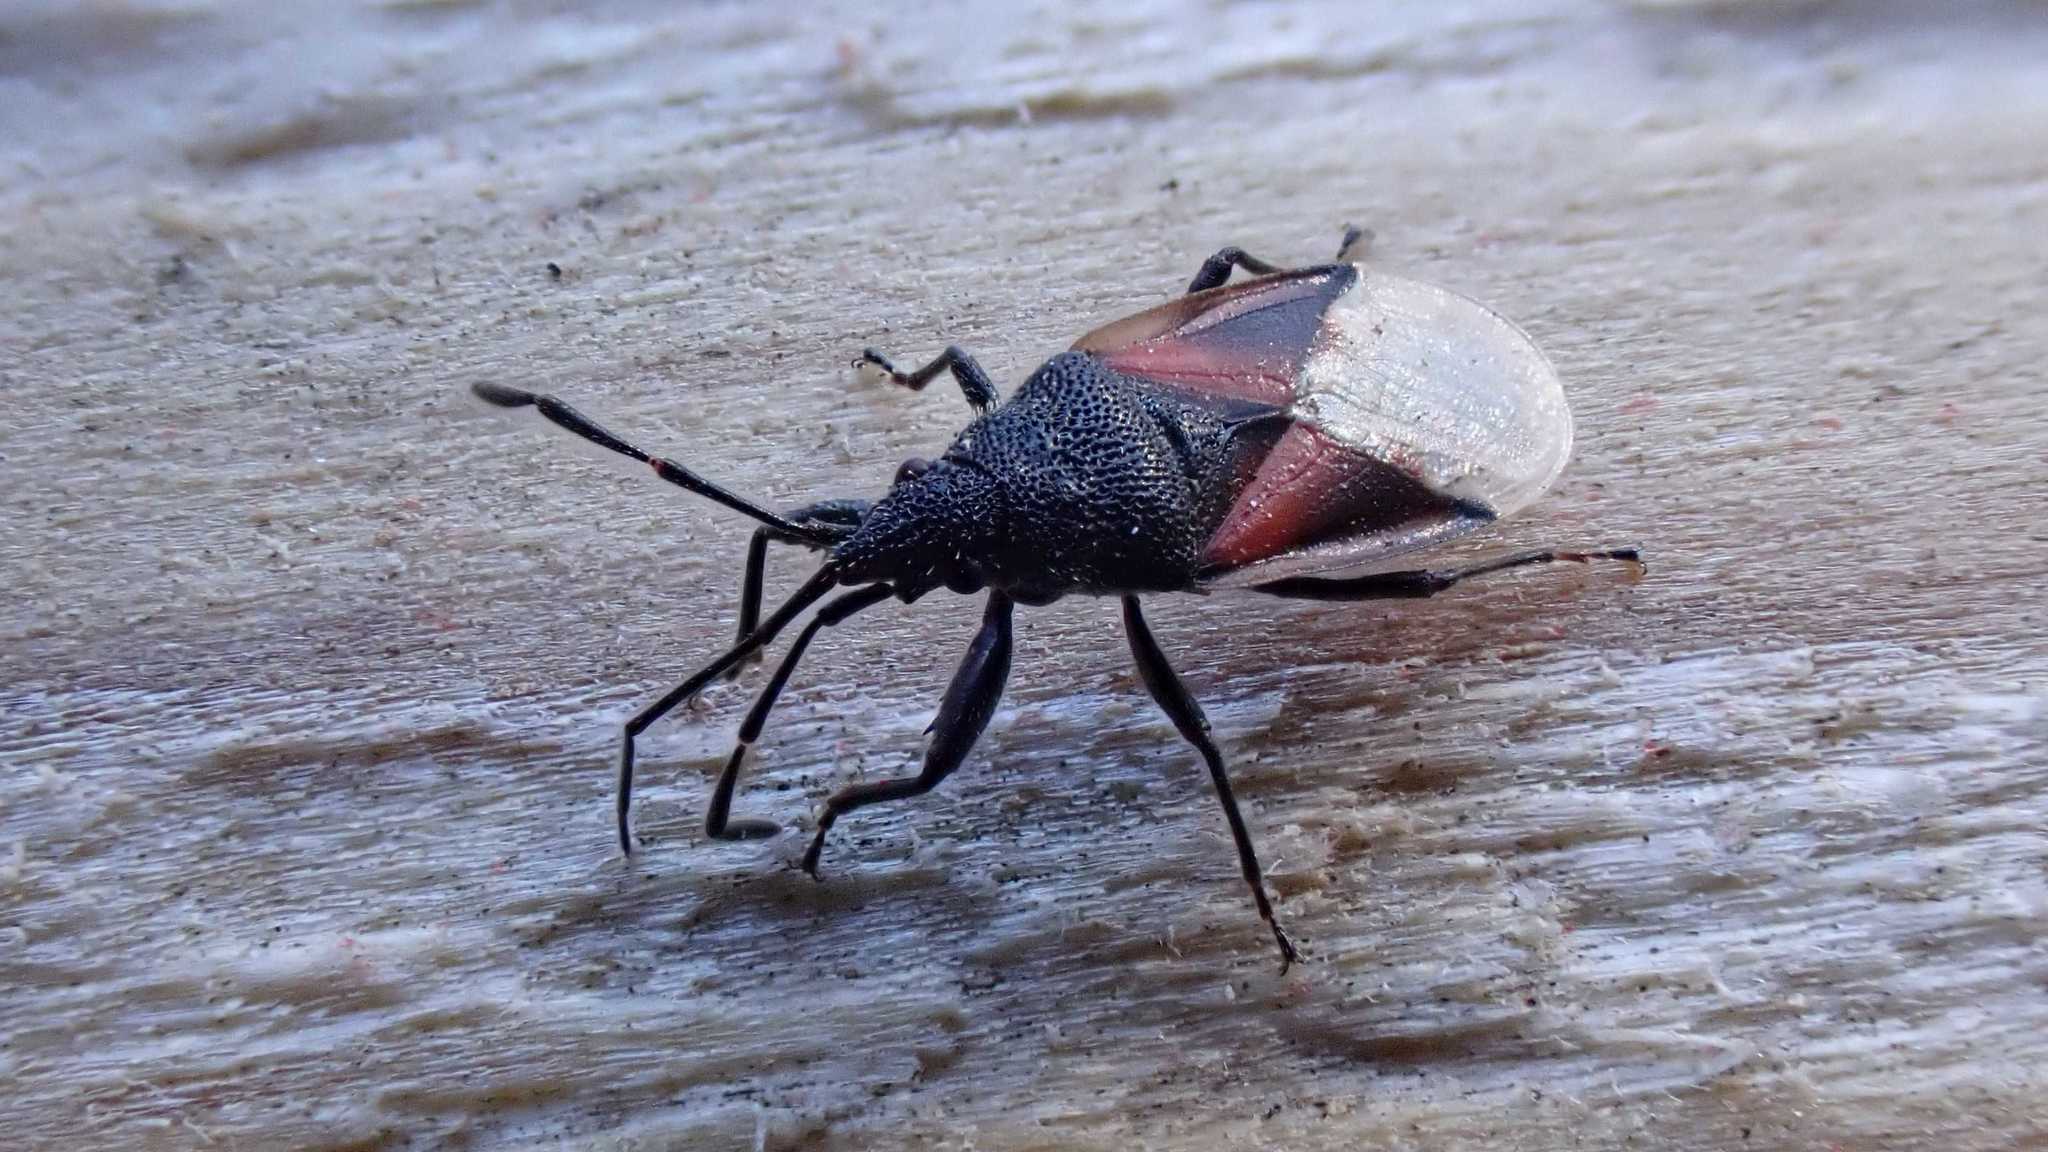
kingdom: Animalia
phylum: Arthropoda
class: Insecta
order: Hemiptera
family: Oxycarenidae
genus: Oxycarenus
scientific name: Oxycarenus lavaterae
